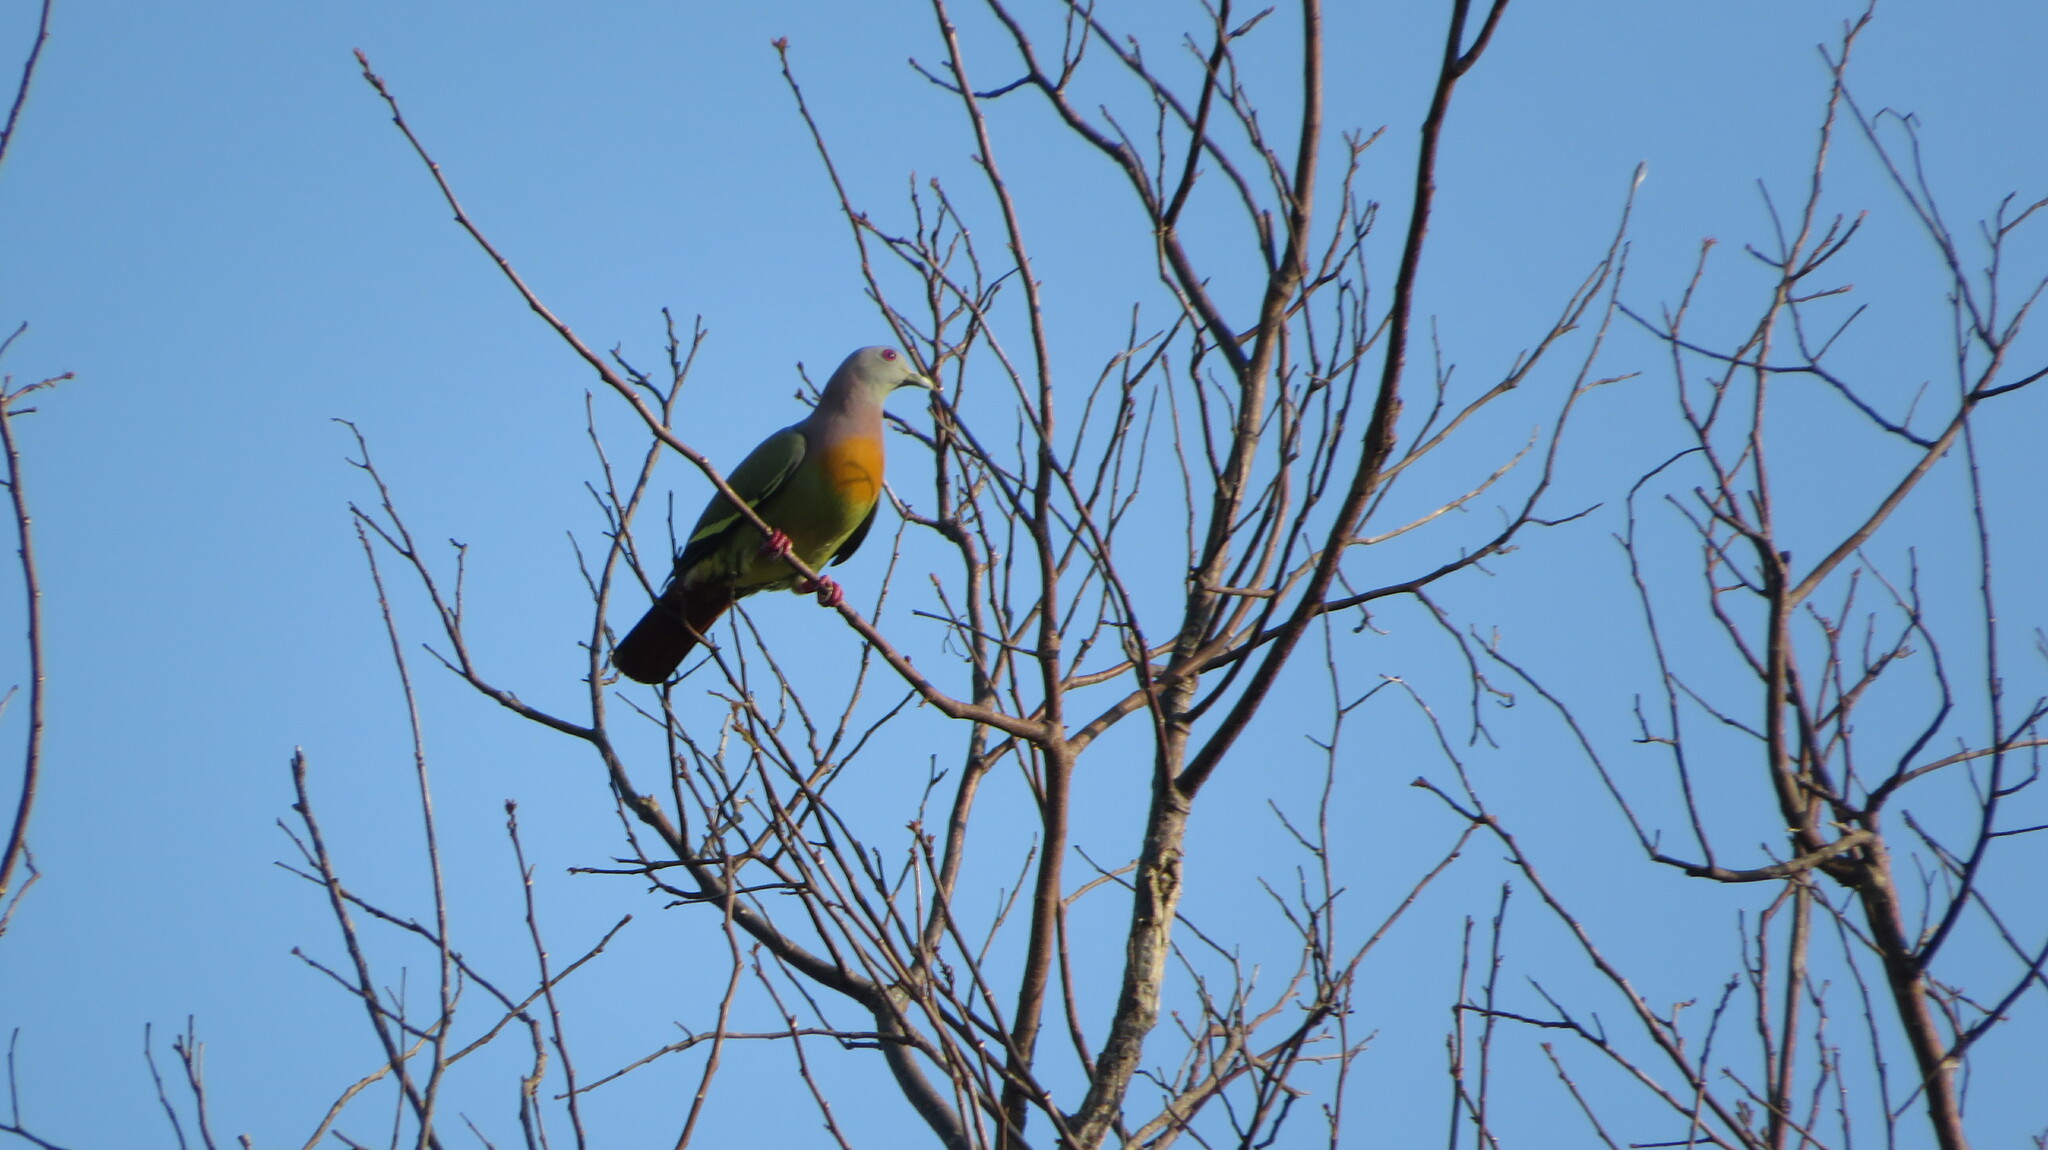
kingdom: Animalia
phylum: Chordata
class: Aves
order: Columbiformes
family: Columbidae
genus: Treron
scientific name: Treron vernans
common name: Pink-necked green pigeon
